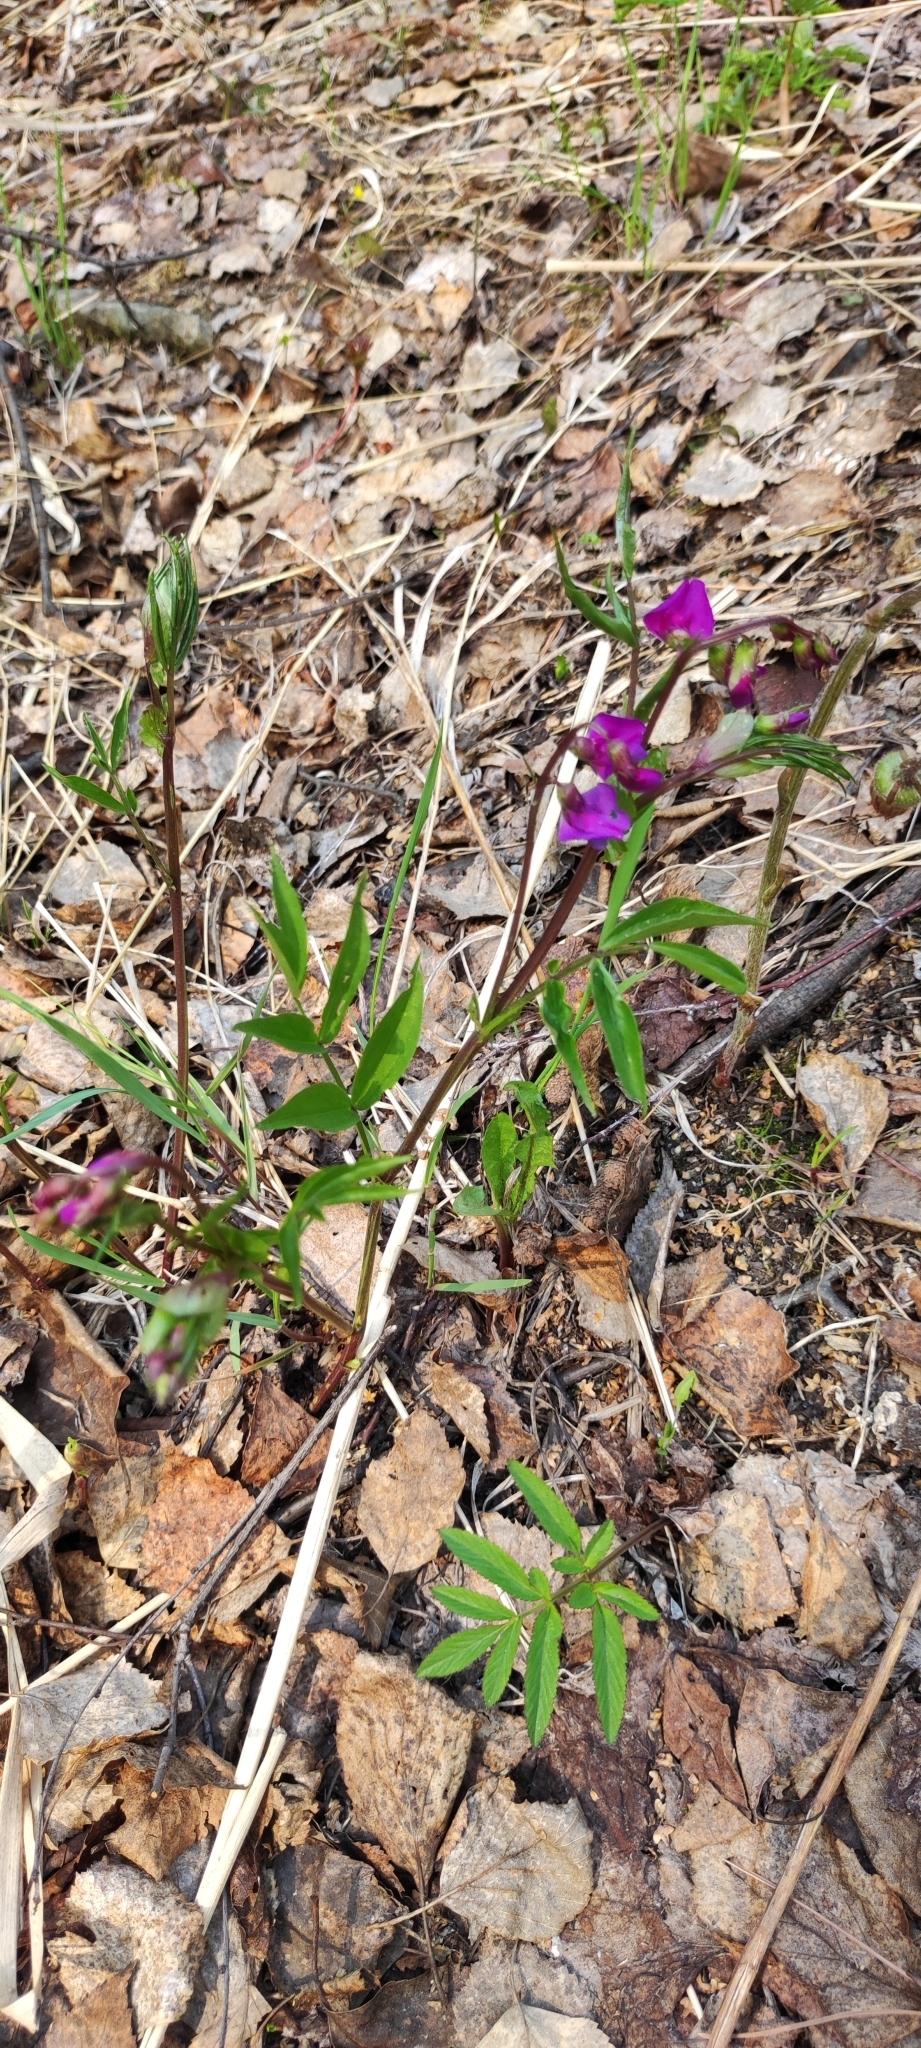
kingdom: Plantae
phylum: Tracheophyta
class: Magnoliopsida
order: Fabales
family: Fabaceae
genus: Lathyrus
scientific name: Lathyrus vernus
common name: Spring pea
